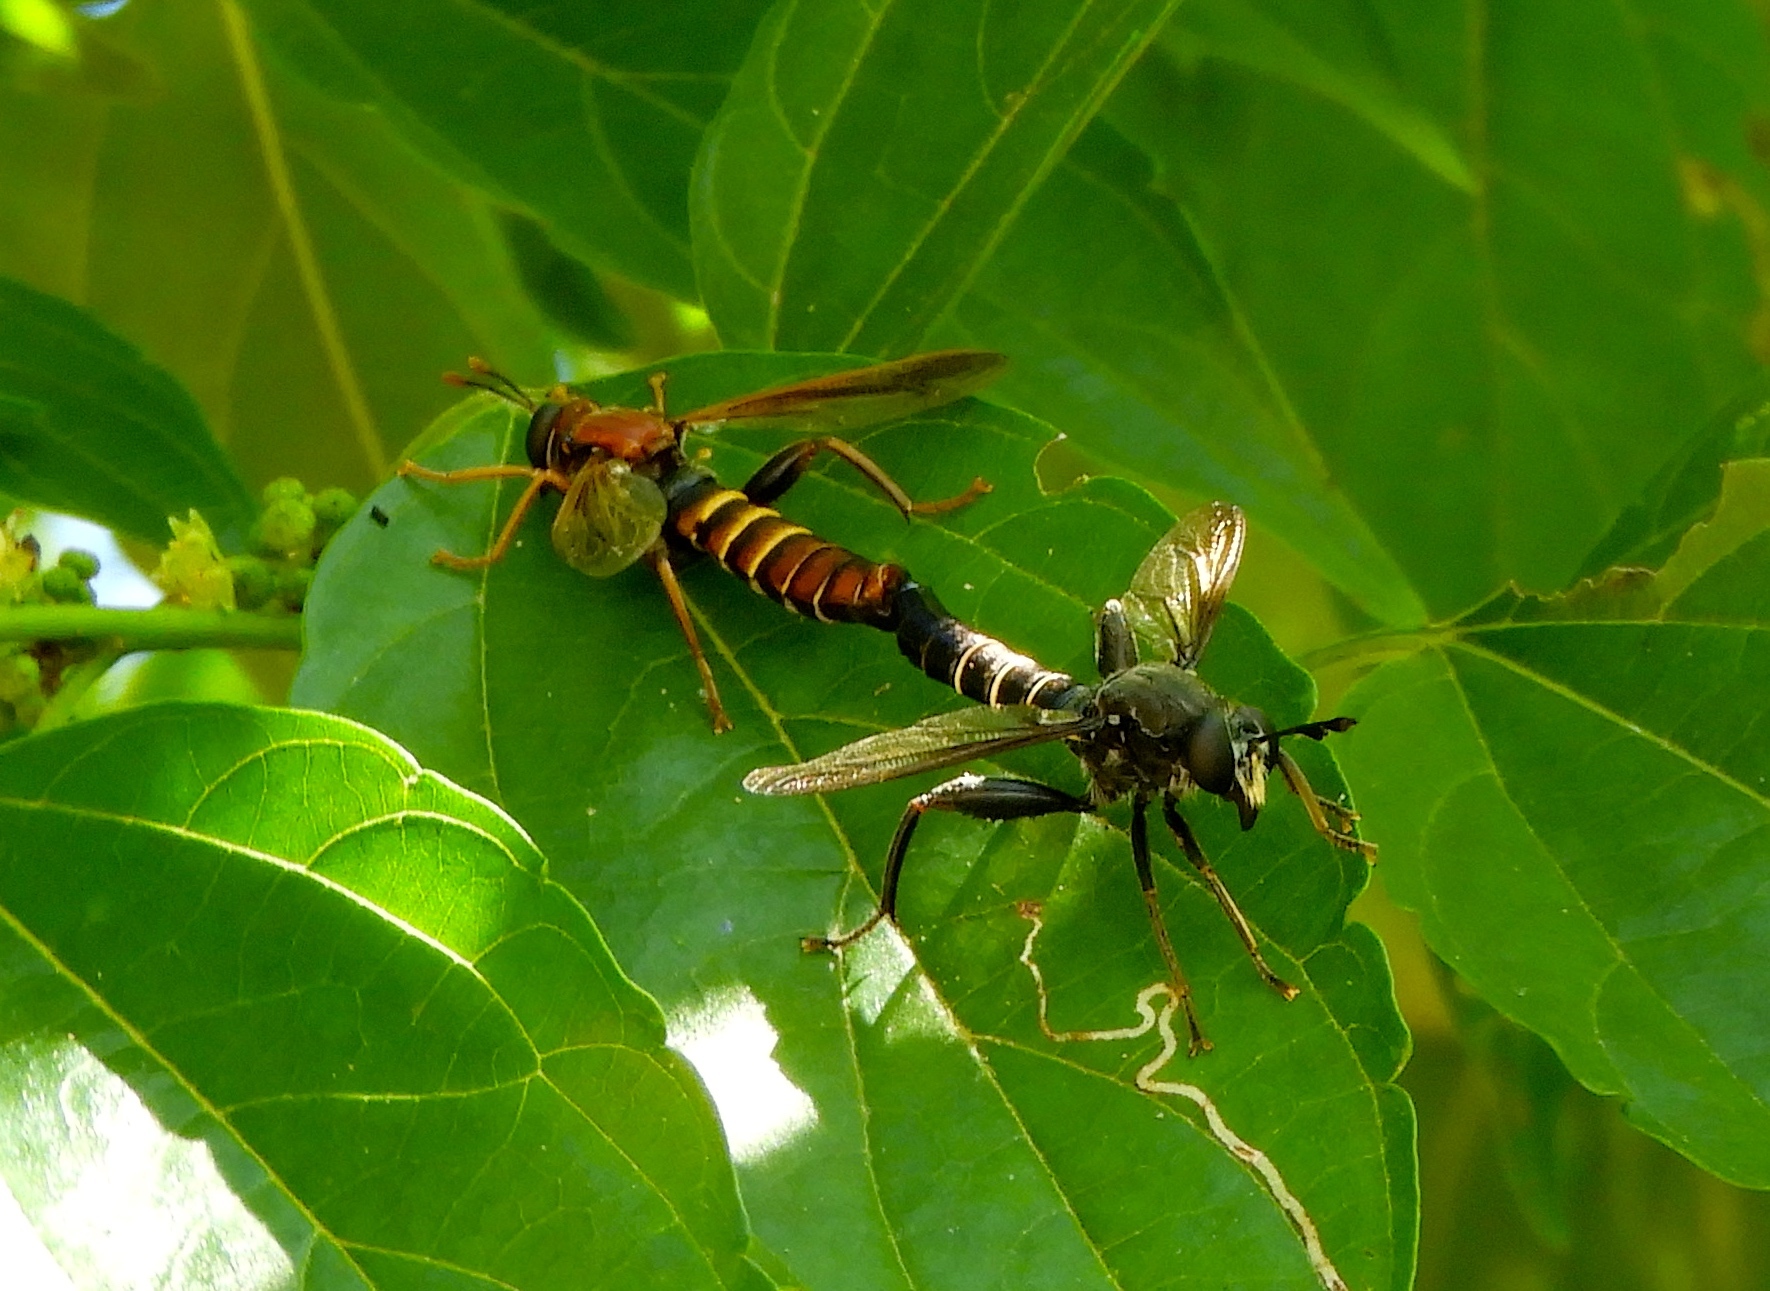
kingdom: Animalia
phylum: Arthropoda
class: Insecta
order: Diptera
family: Mydidae
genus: Mydas
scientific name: Mydas
